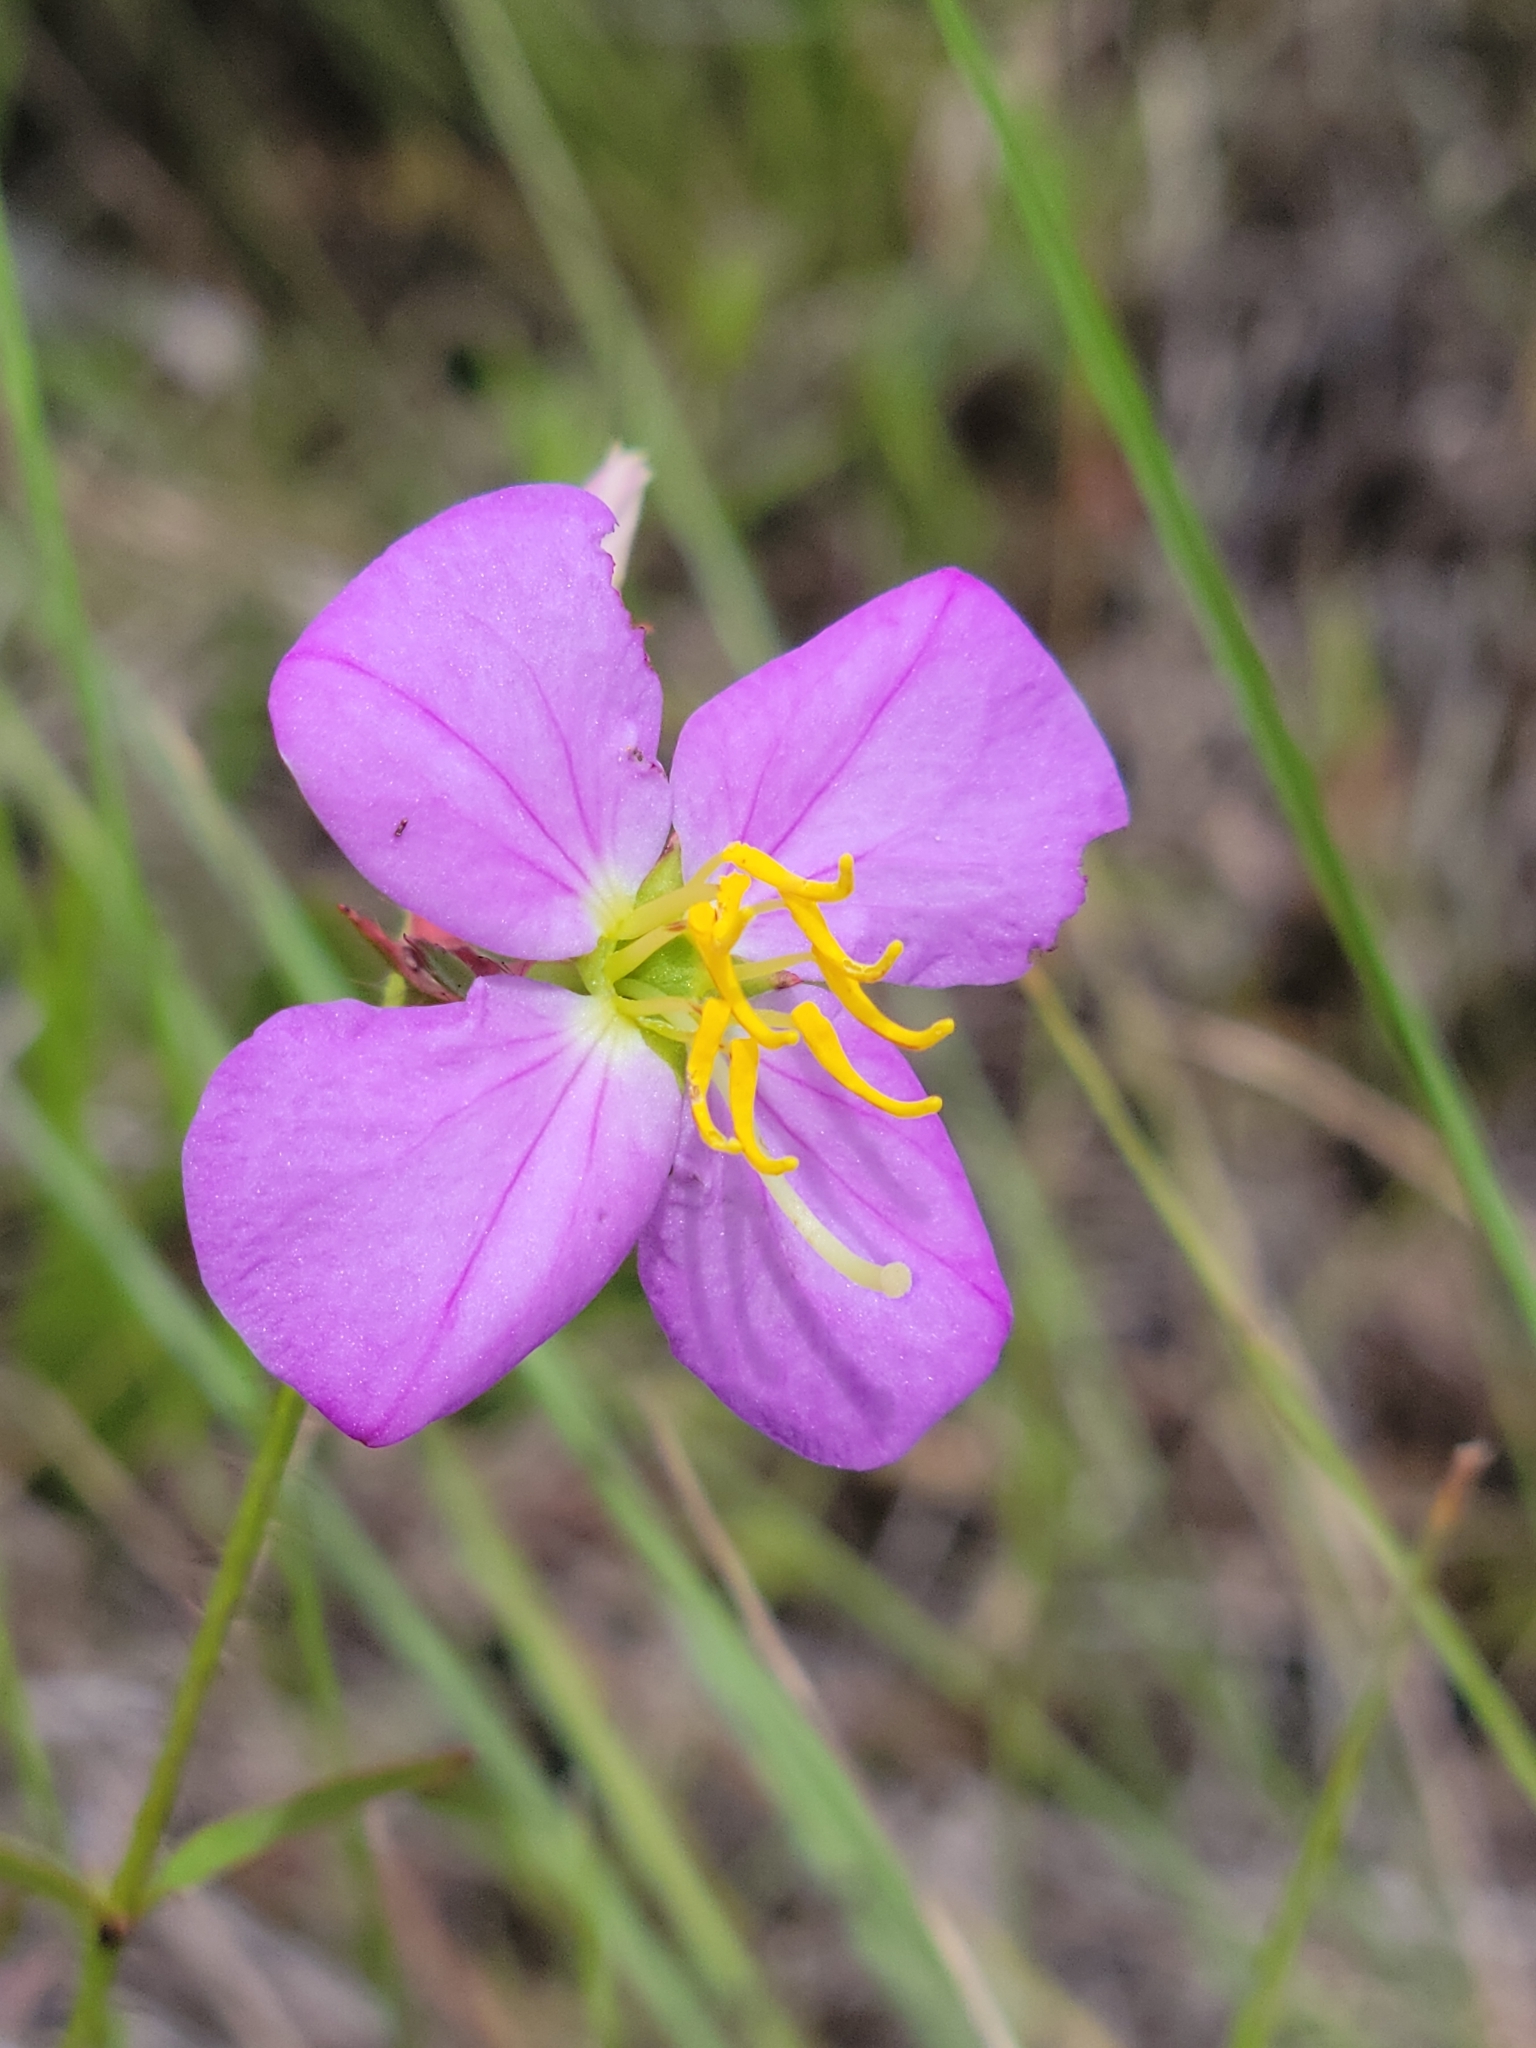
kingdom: Plantae
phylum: Tracheophyta
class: Magnoliopsida
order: Myrtales
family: Melastomataceae
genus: Rhexia
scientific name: Rhexia mariana
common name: Dull meadow-pitcher
